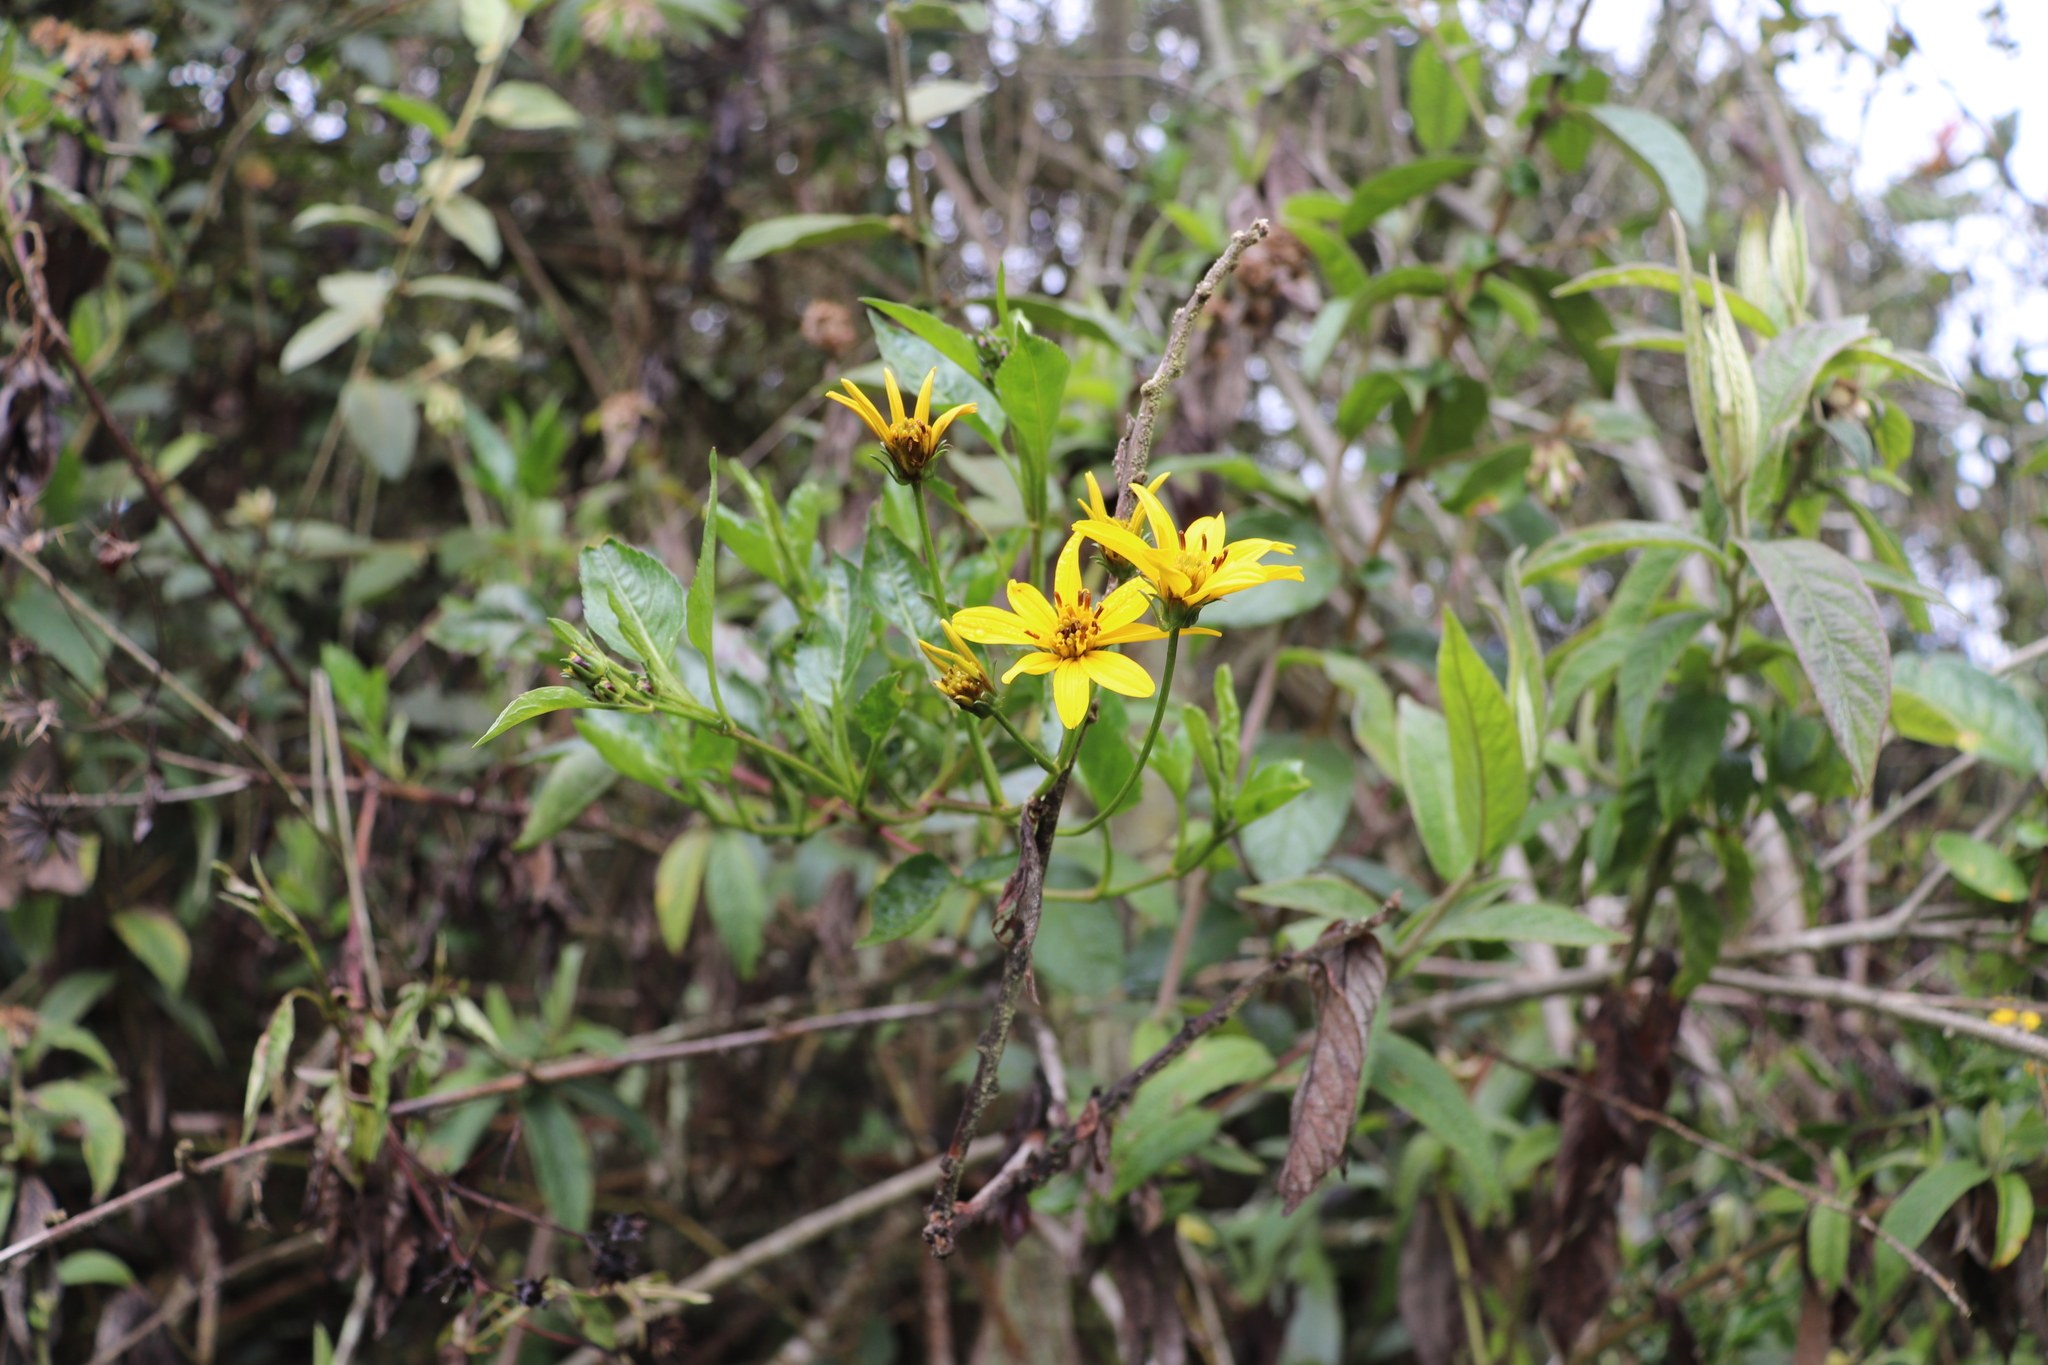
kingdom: Plantae
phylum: Tracheophyta
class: Magnoliopsida
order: Asterales
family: Asteraceae
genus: Bidens
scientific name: Bidens rubifolia
